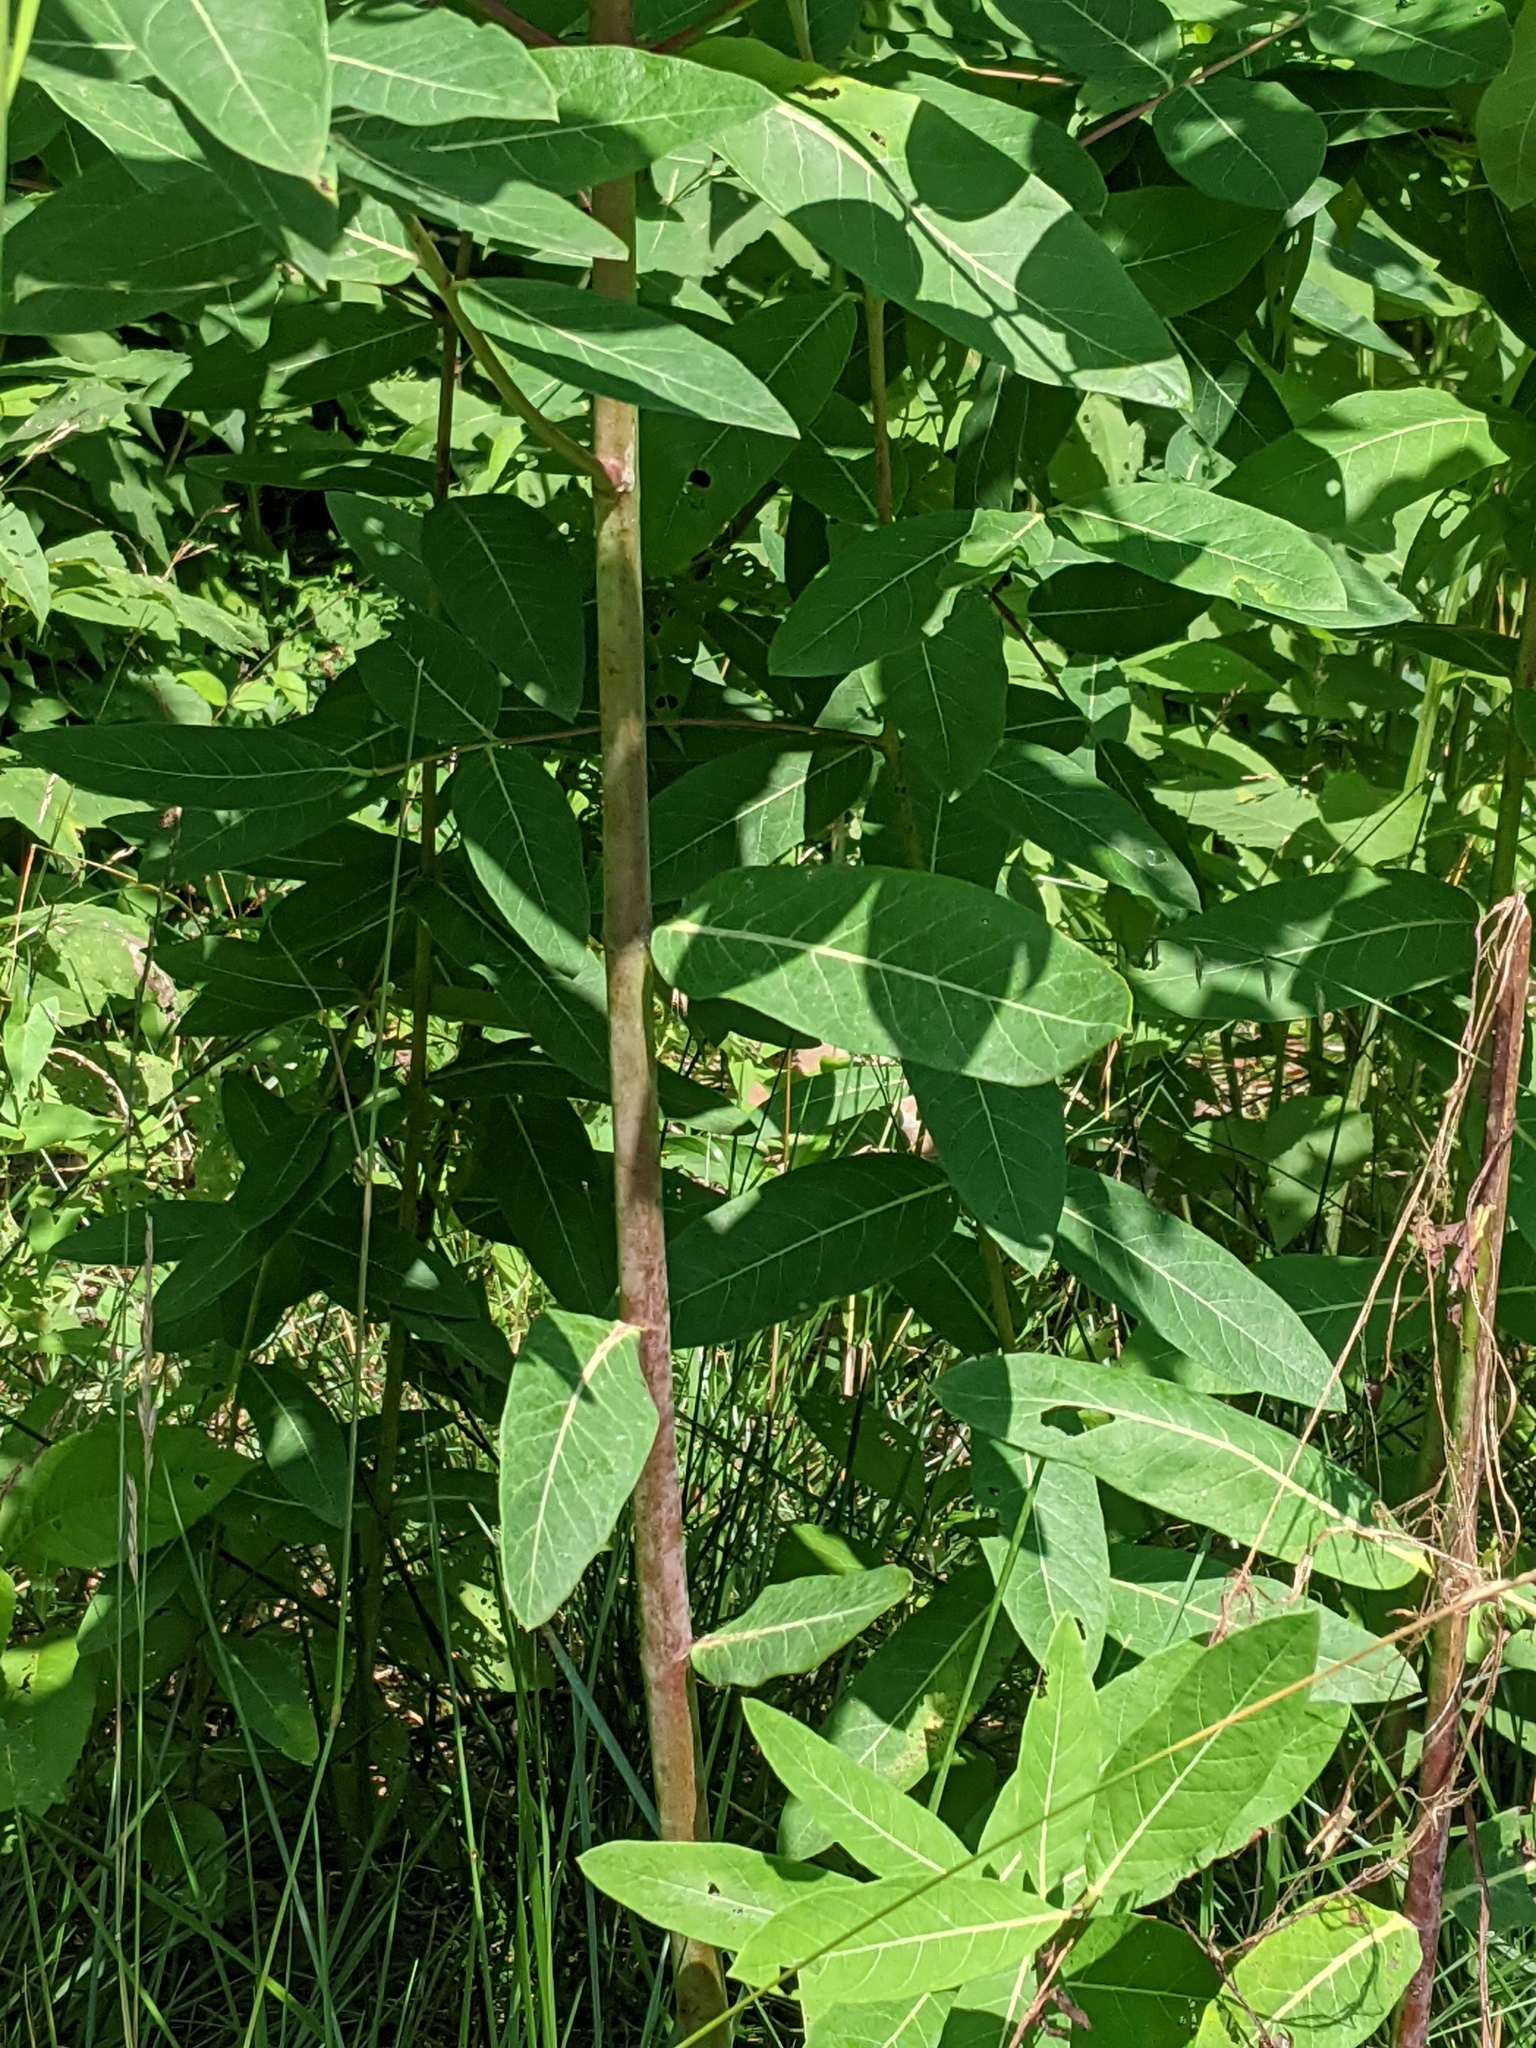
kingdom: Plantae
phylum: Tracheophyta
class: Magnoliopsida
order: Gentianales
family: Apocynaceae
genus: Apocynum
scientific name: Apocynum cannabinum
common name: Hemp dogbane
